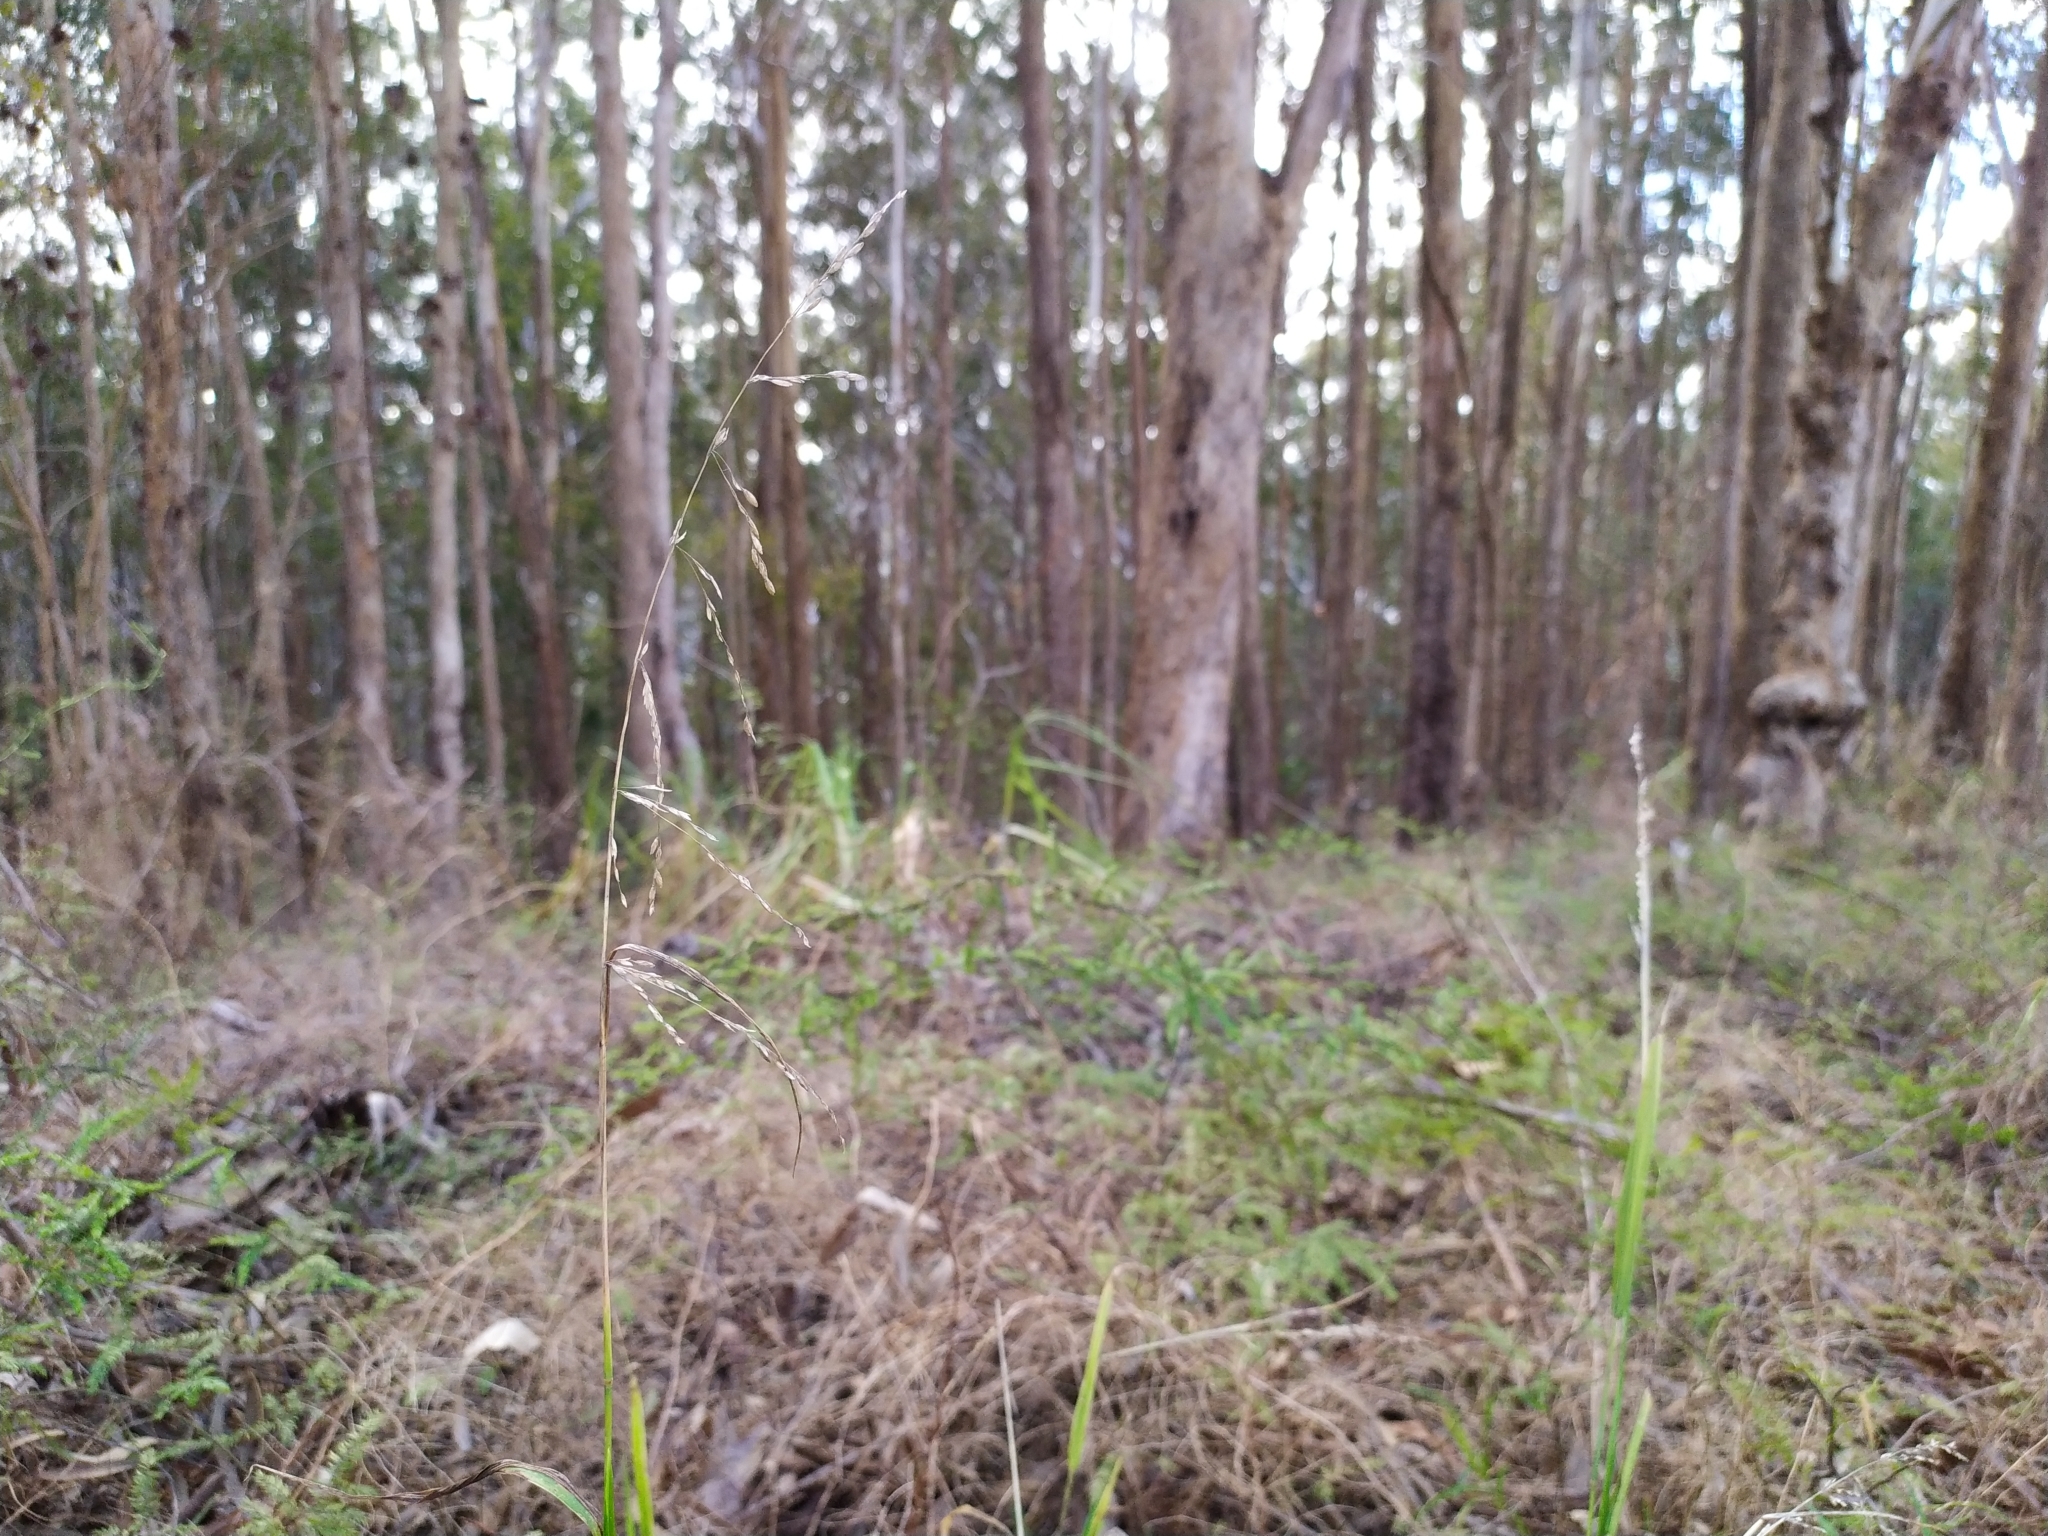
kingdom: Plantae
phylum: Tracheophyta
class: Liliopsida
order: Poales
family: Poaceae
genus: Ehrharta
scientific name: Ehrharta erecta
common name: Panic veldtgrass
